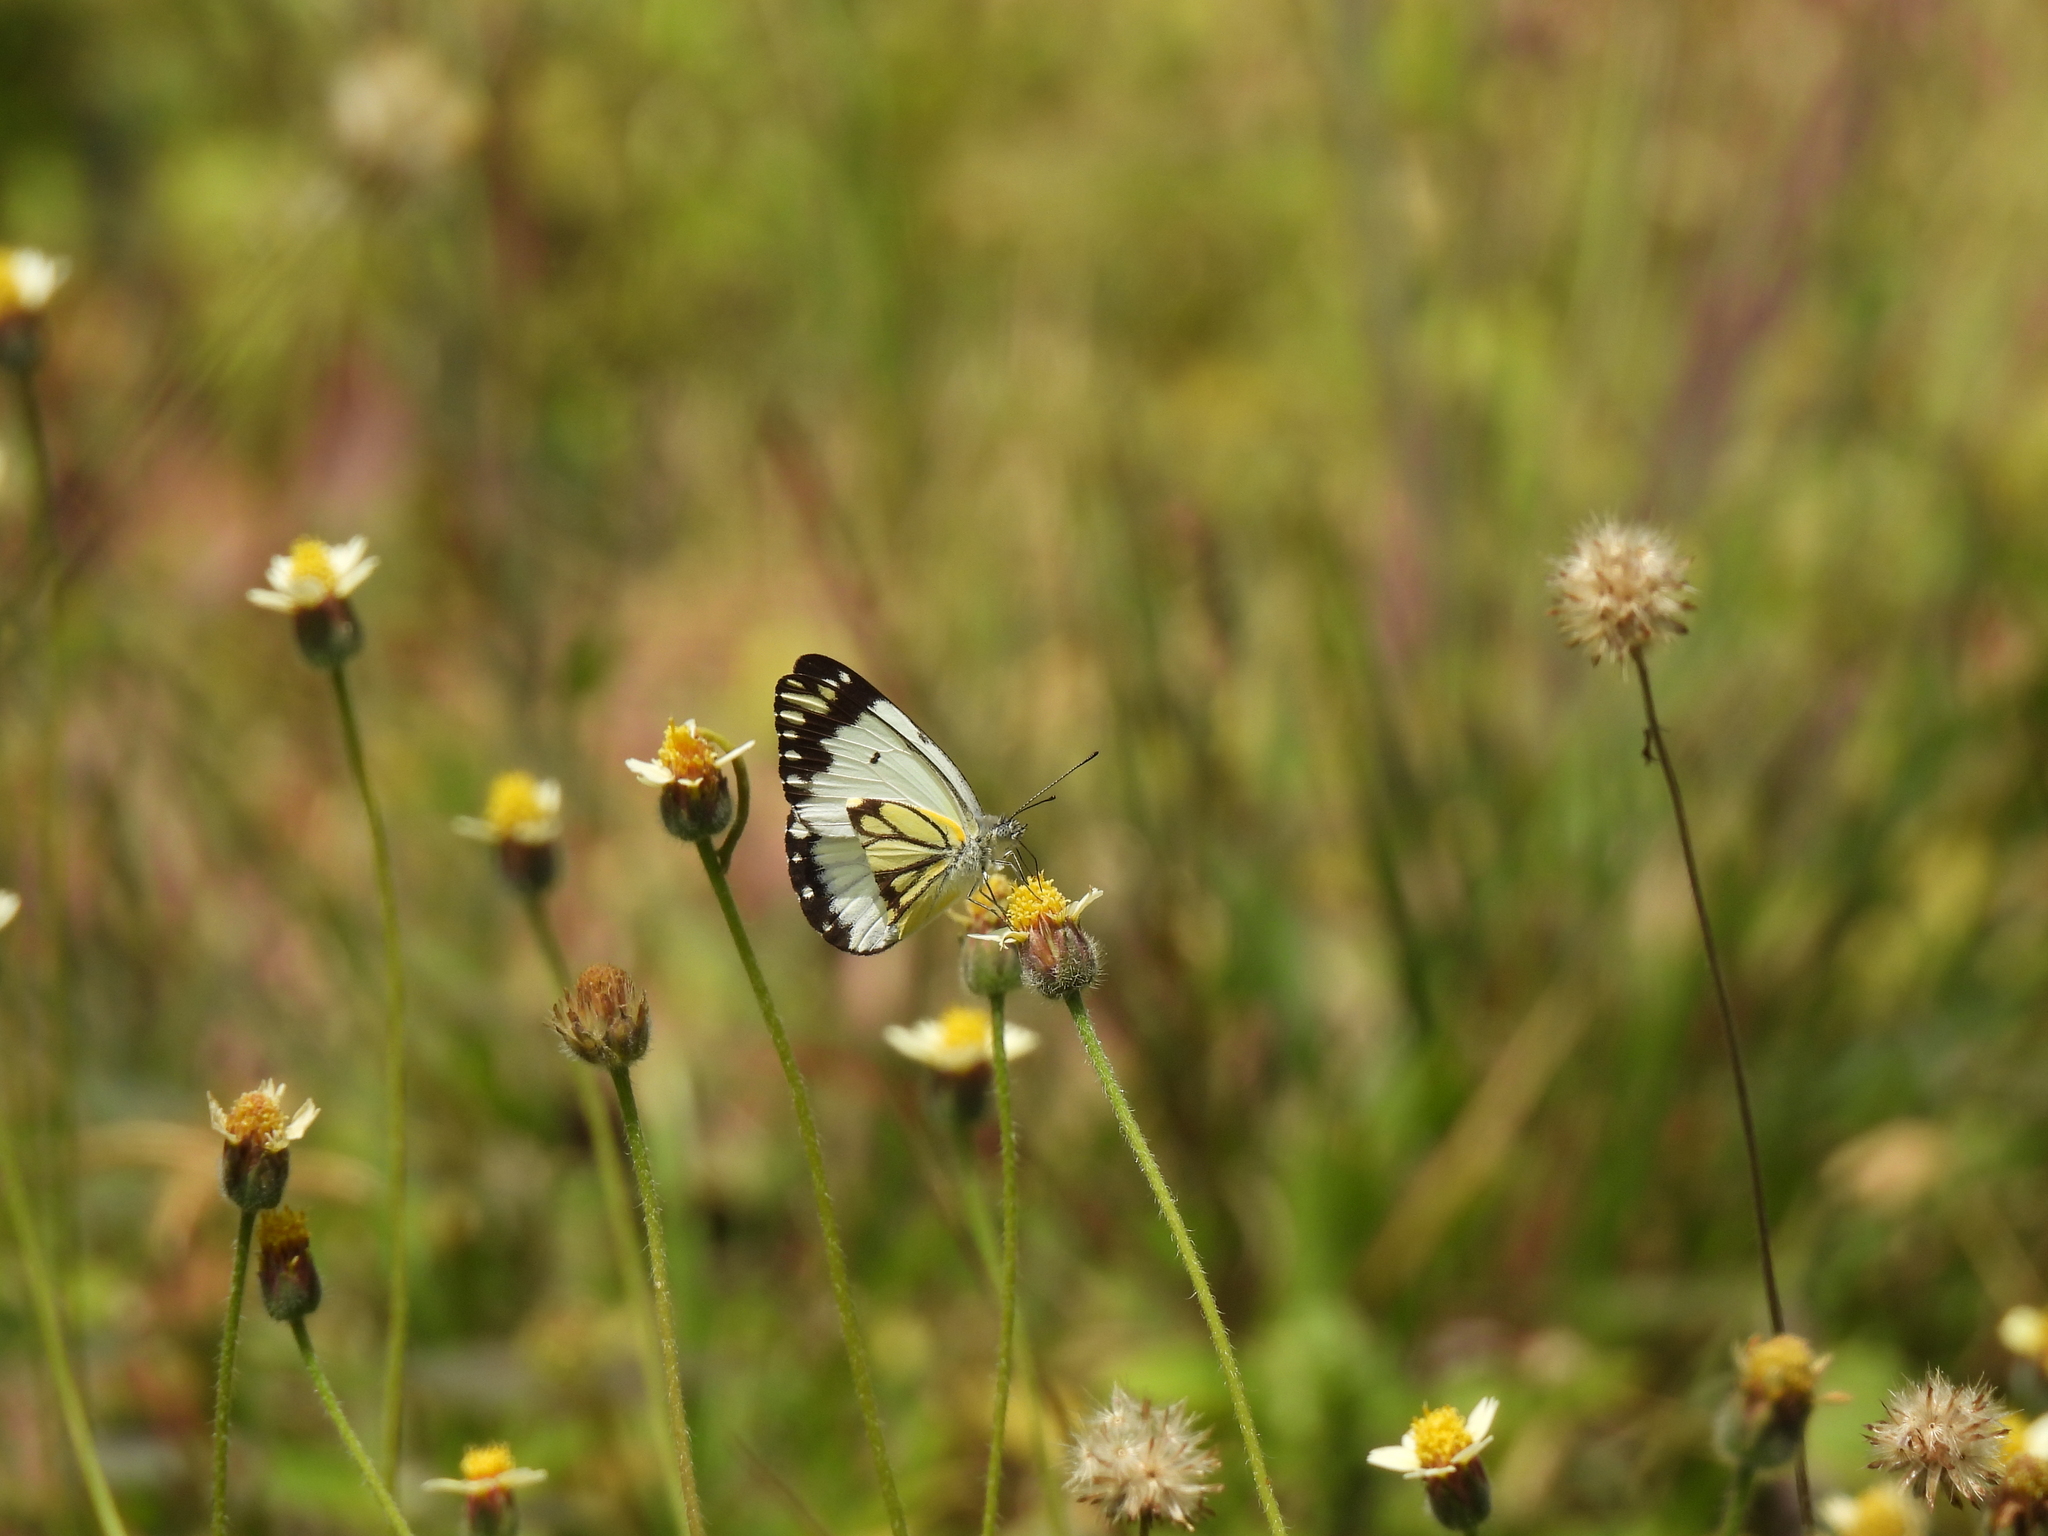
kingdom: Animalia
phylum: Arthropoda
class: Insecta
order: Lepidoptera
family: Pieridae
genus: Belenois
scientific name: Belenois creona
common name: African caper white
